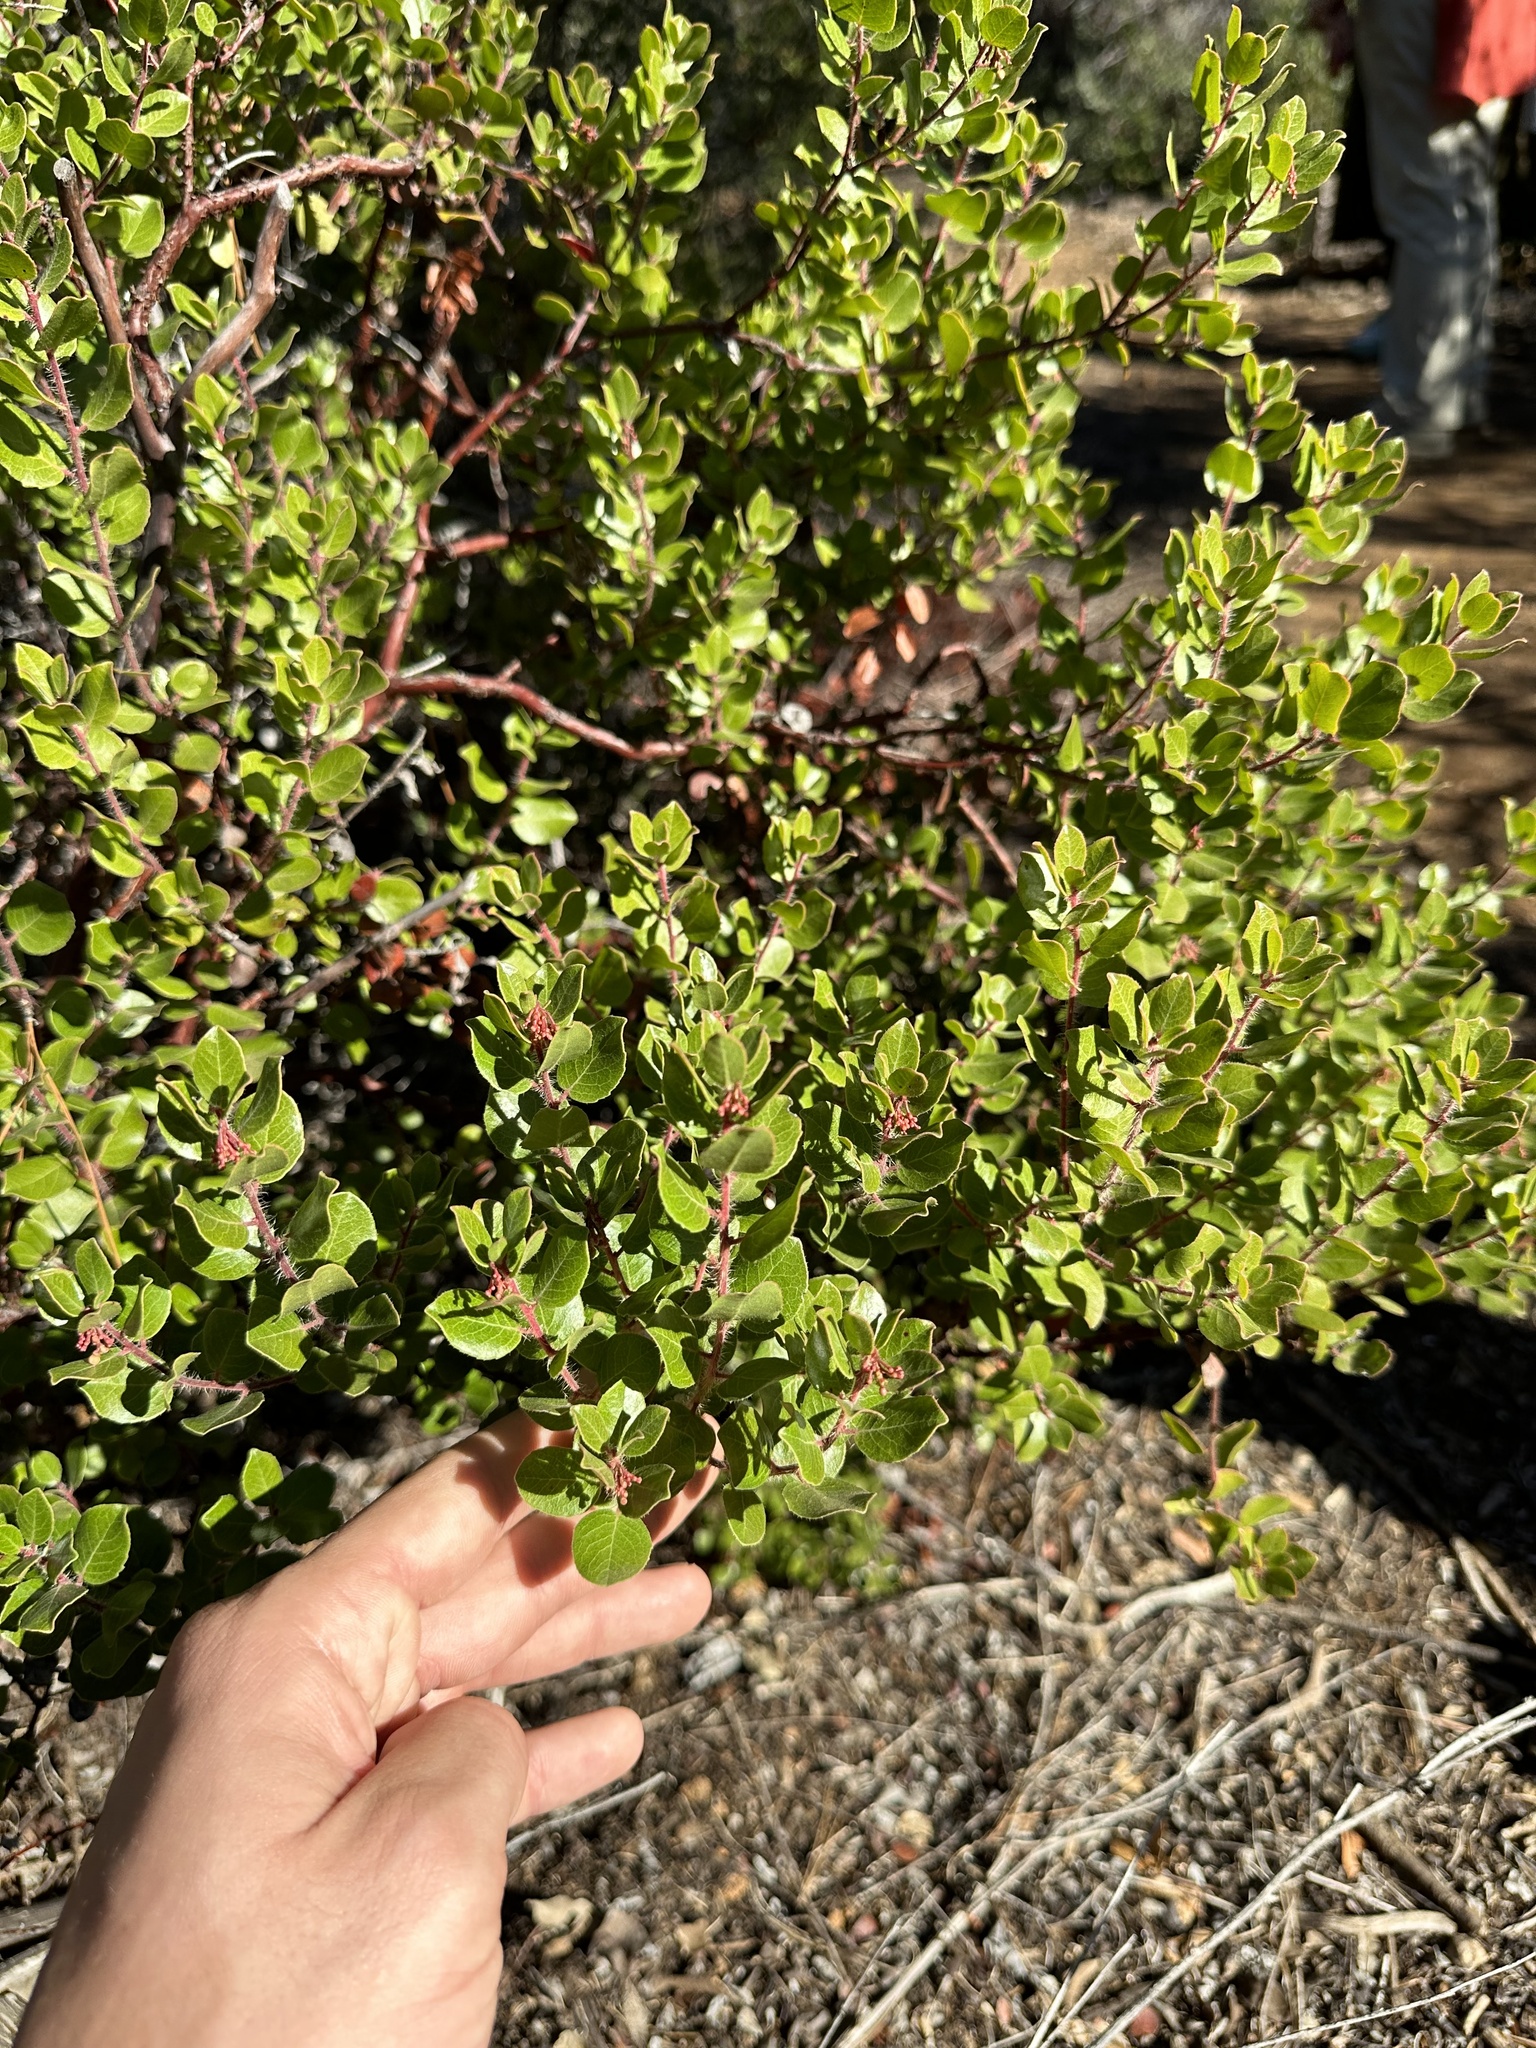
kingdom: Plantae
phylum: Tracheophyta
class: Magnoliopsida
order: Ericales
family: Ericaceae
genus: Arctostaphylos
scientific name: Arctostaphylos nummularia
